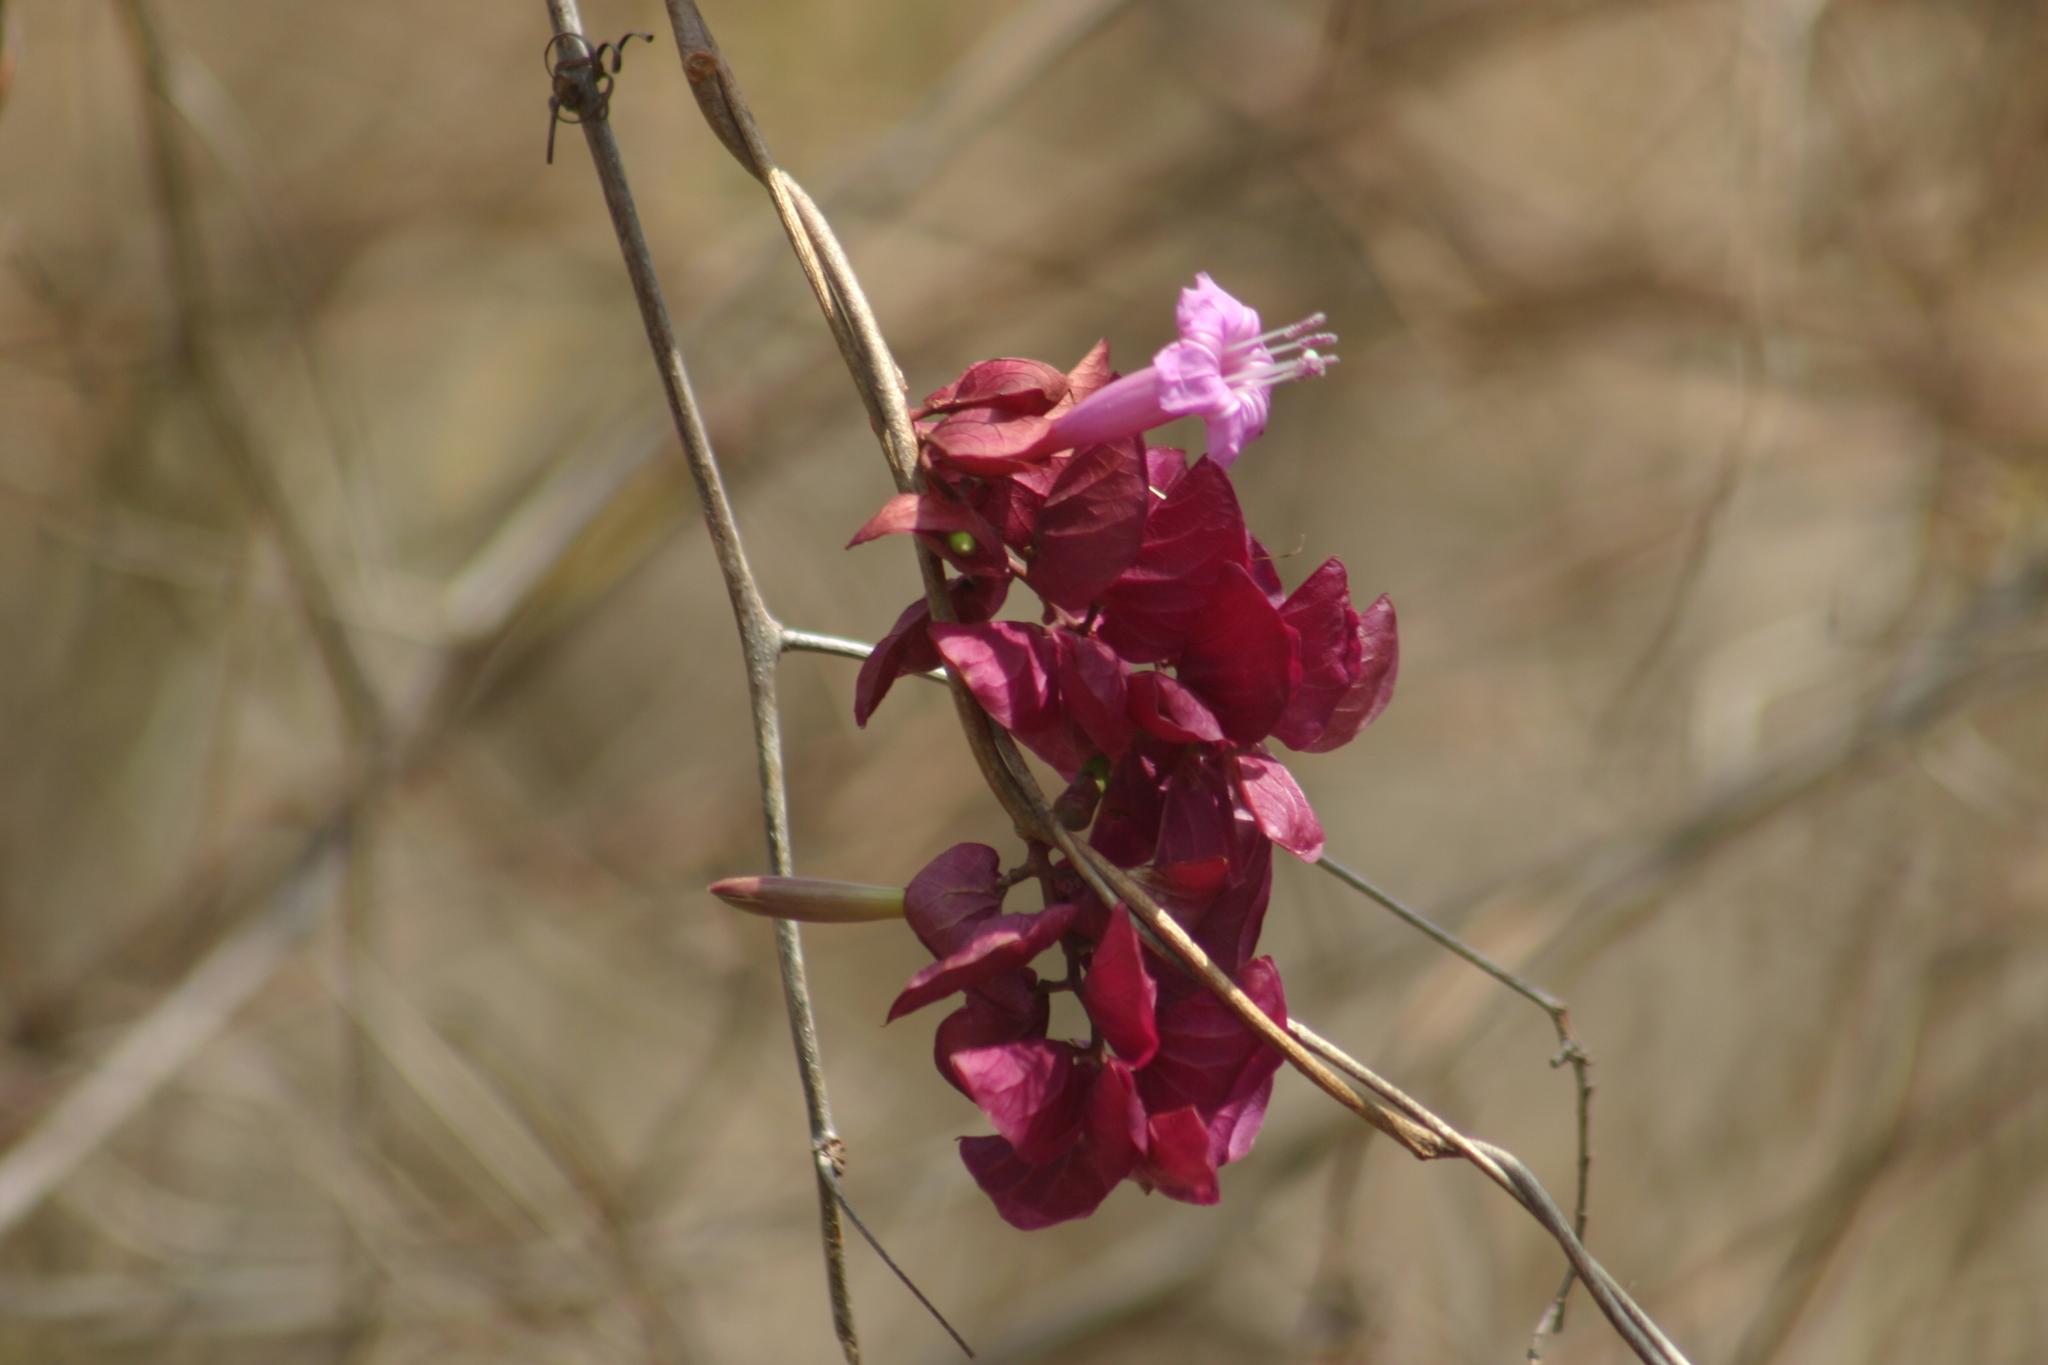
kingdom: Plantae
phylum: Tracheophyta
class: Magnoliopsida
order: Solanales
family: Convolvulaceae
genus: Ipomoea
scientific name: Ipomoea bracteata
